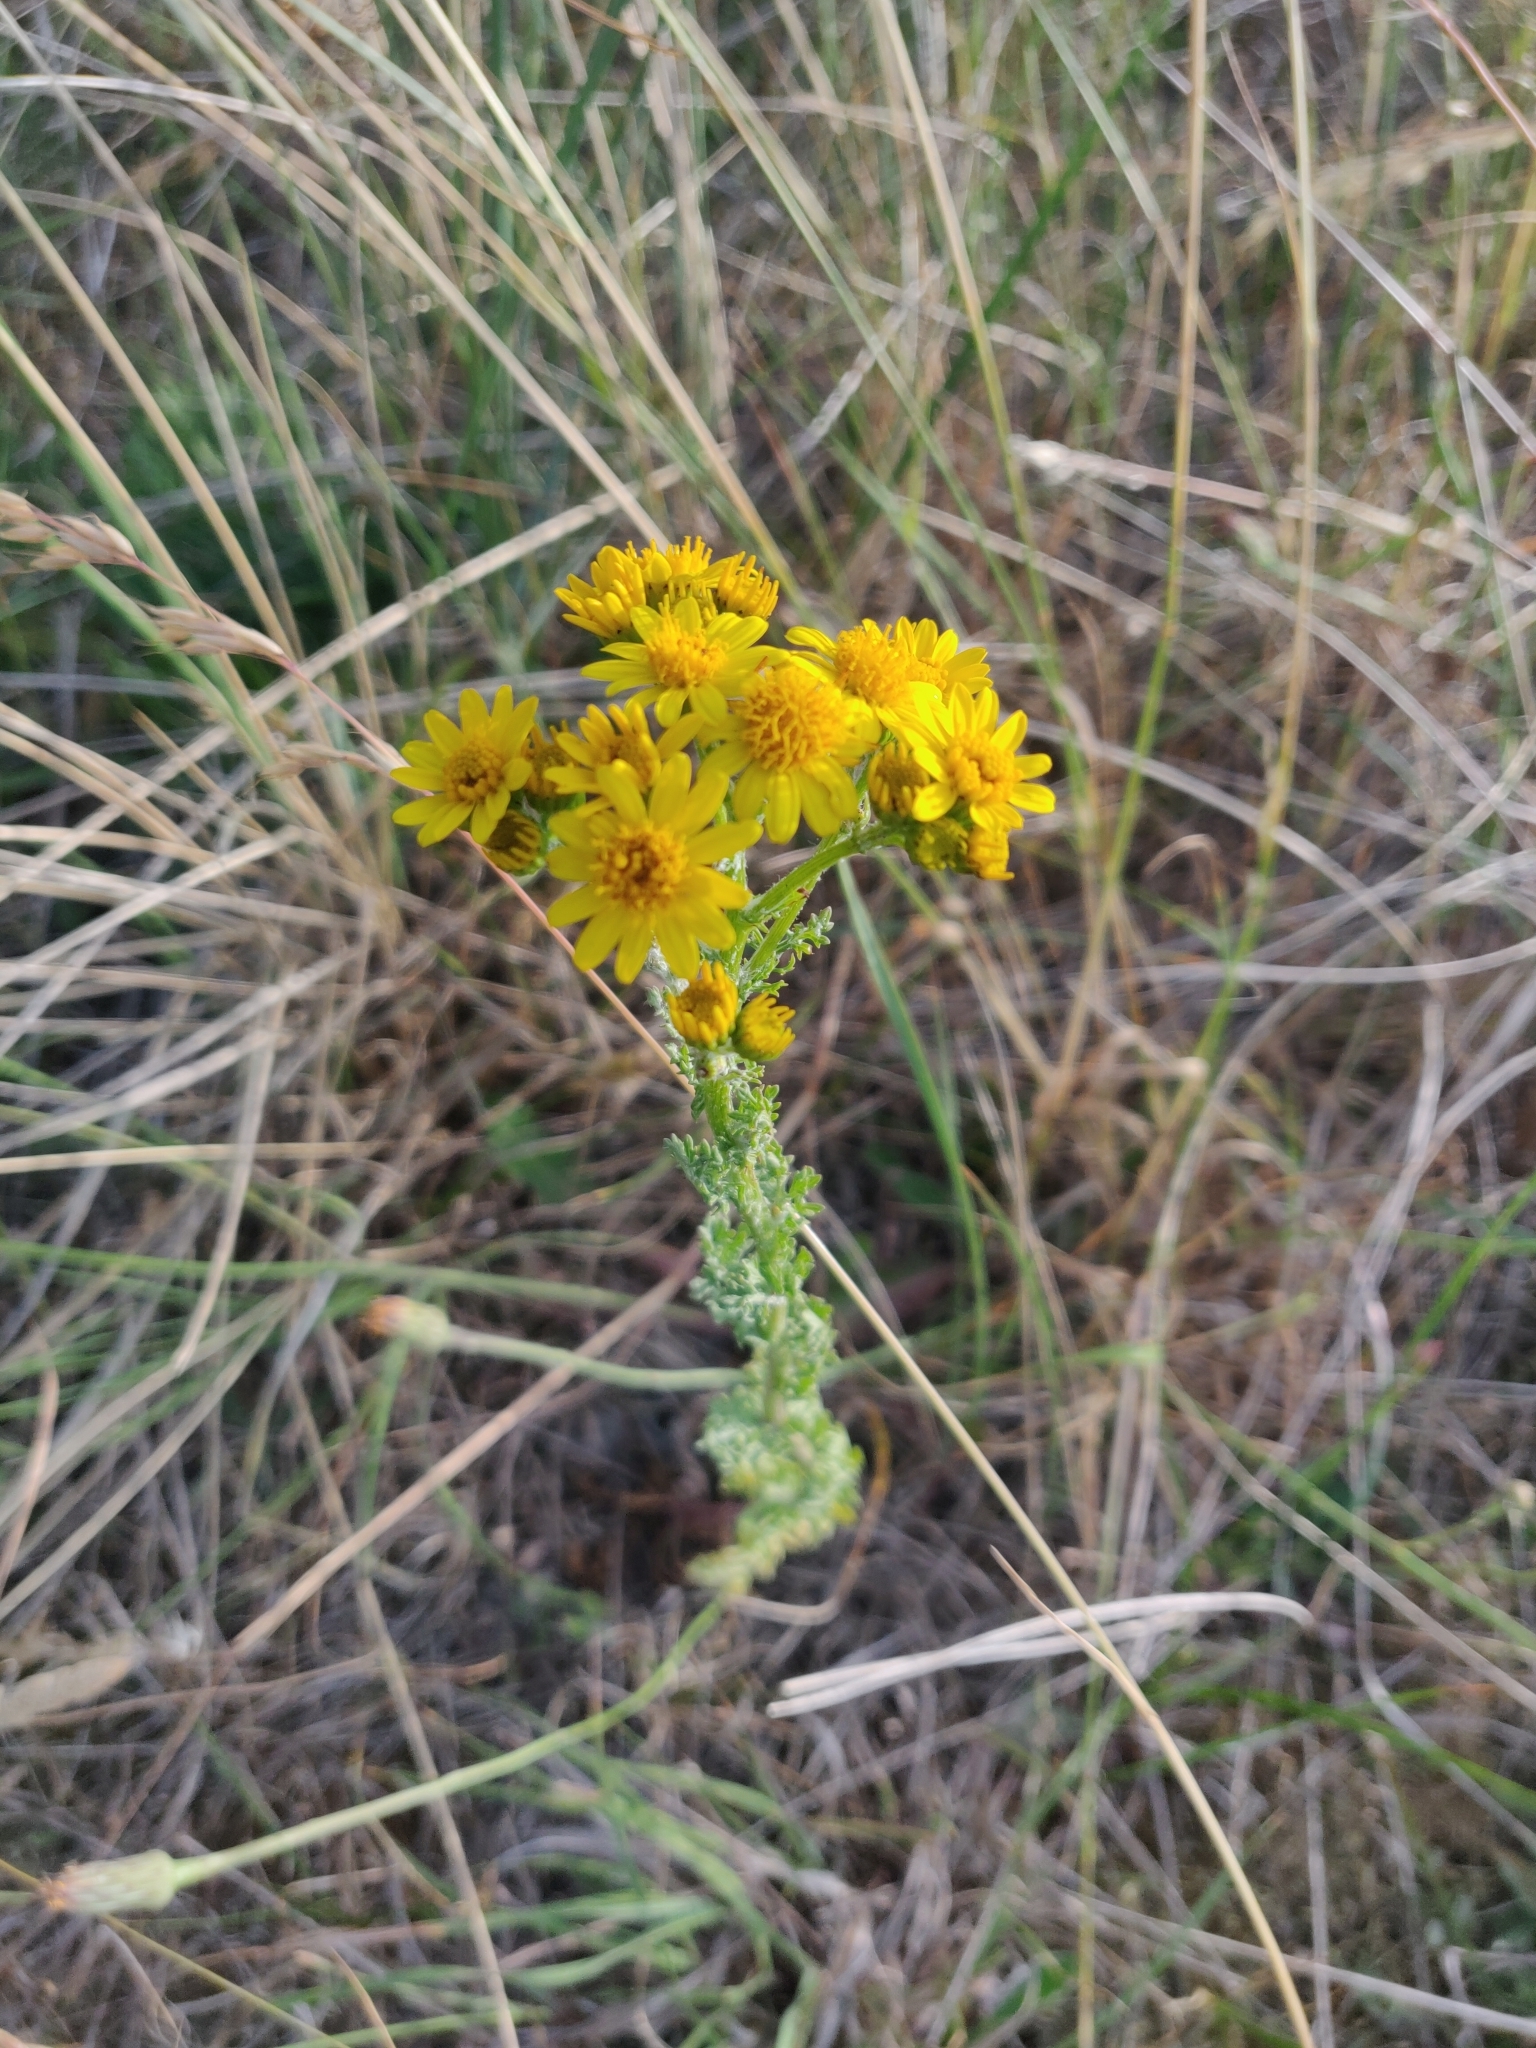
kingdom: Plantae
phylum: Tracheophyta
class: Magnoliopsida
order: Asterales
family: Asteraceae
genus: Jacobaea
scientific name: Jacobaea vulgaris
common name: Stinking willie
